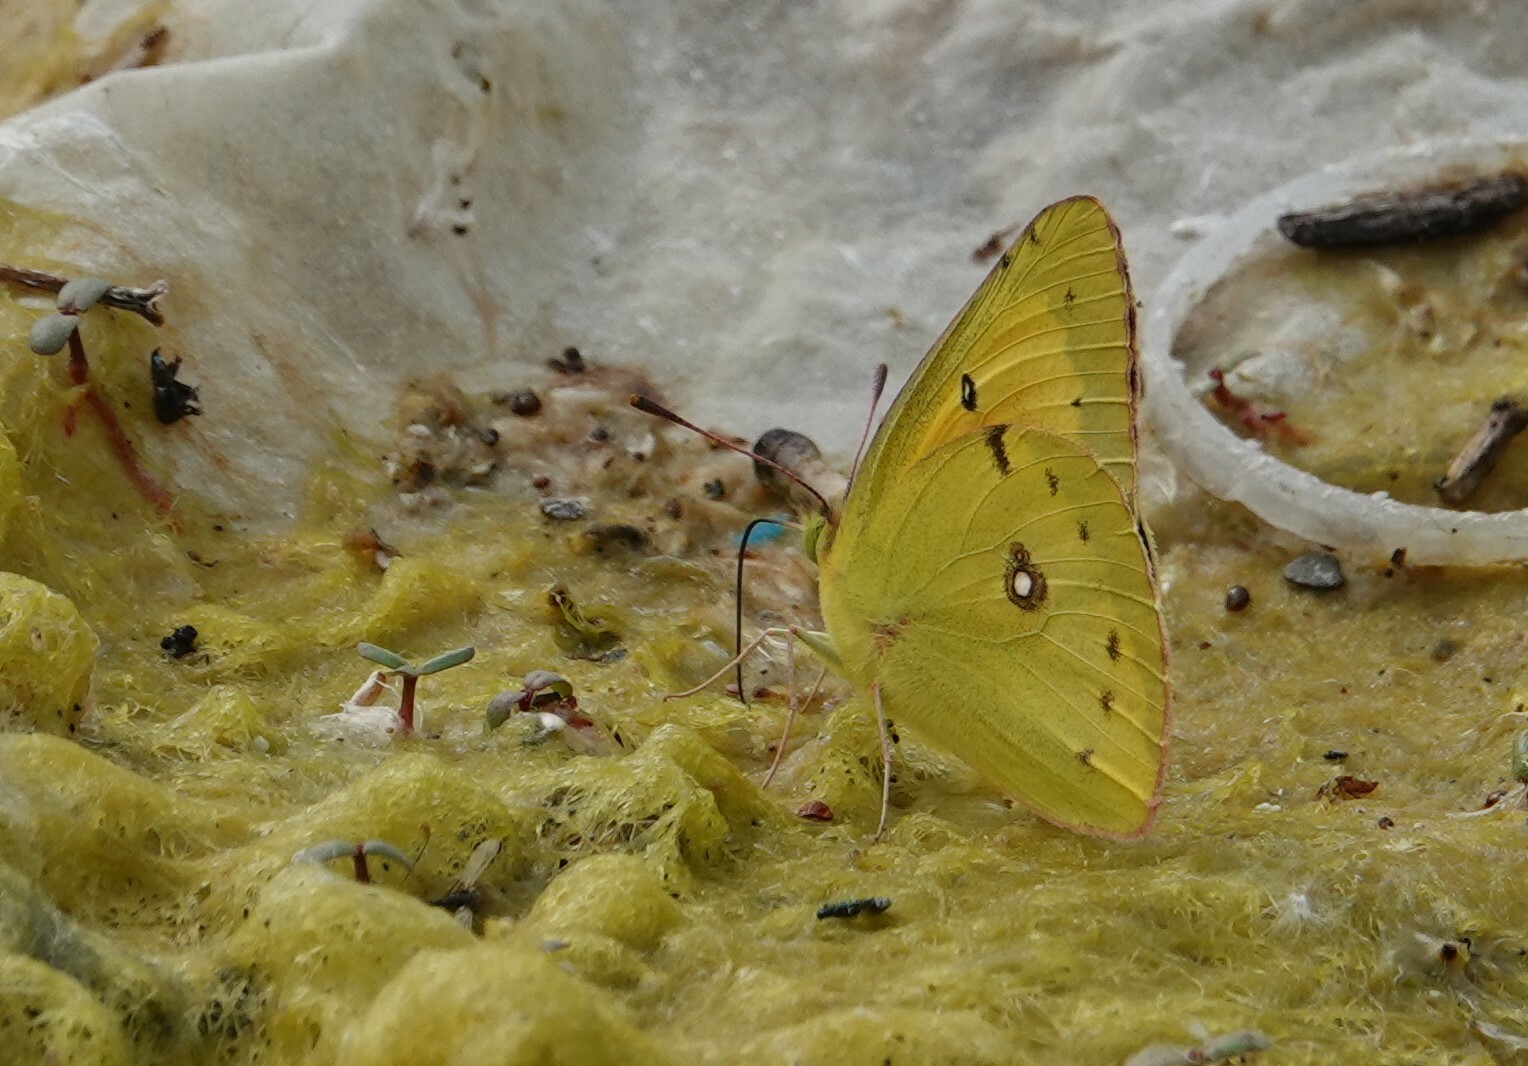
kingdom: Animalia
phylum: Arthropoda
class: Insecta
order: Lepidoptera
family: Pieridae
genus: Colias
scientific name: Colias eurytheme
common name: Alfalfa butterfly
